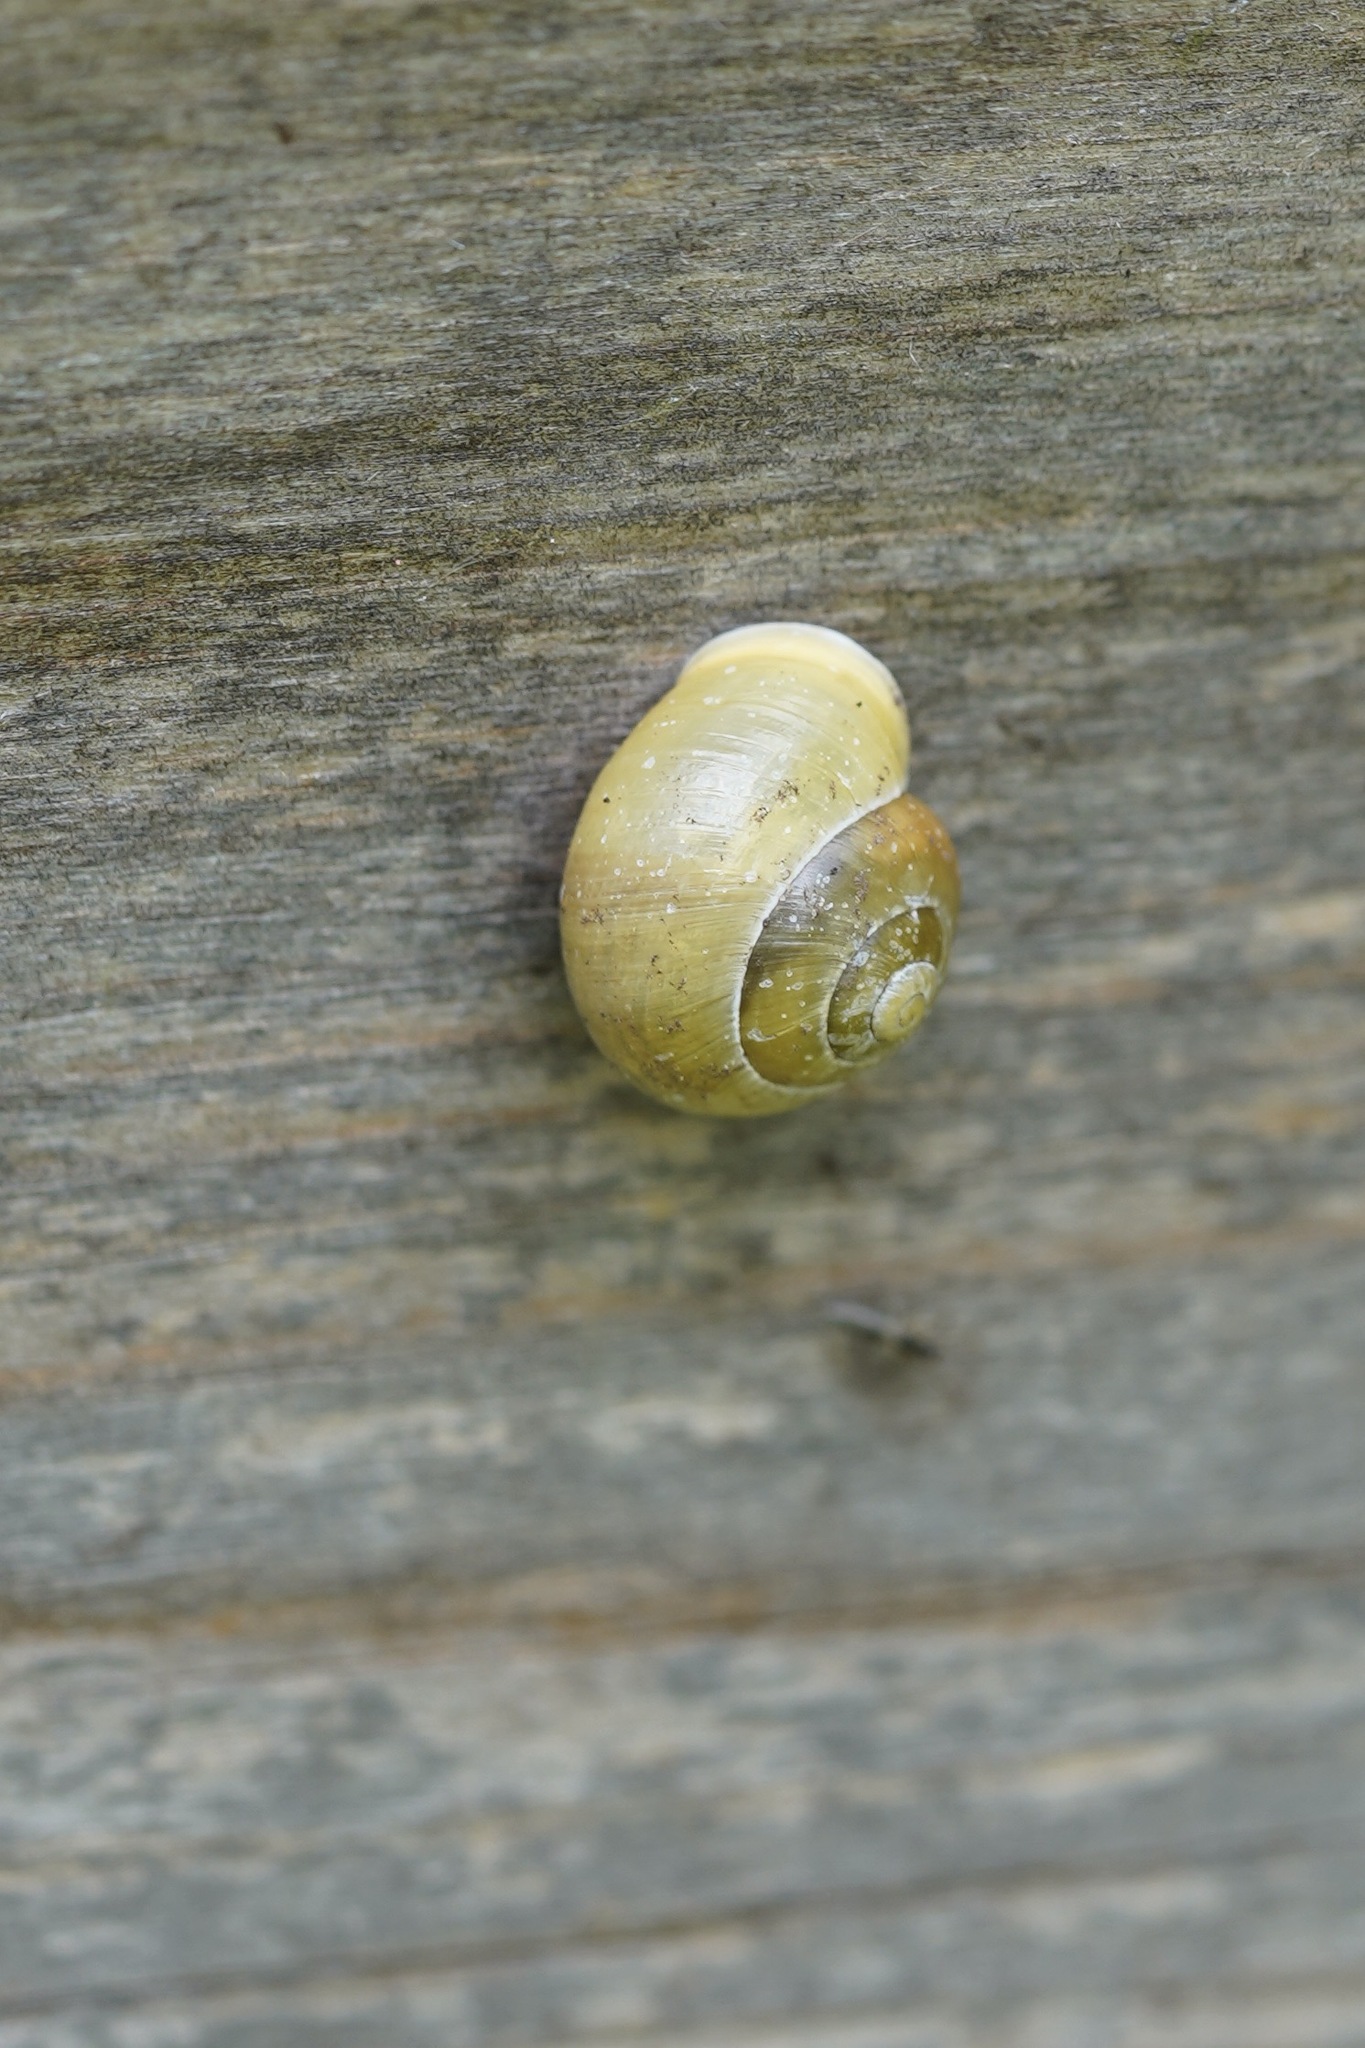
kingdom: Animalia
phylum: Mollusca
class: Gastropoda
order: Stylommatophora
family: Helicidae
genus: Cepaea
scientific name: Cepaea hortensis
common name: White-lip gardensnail
